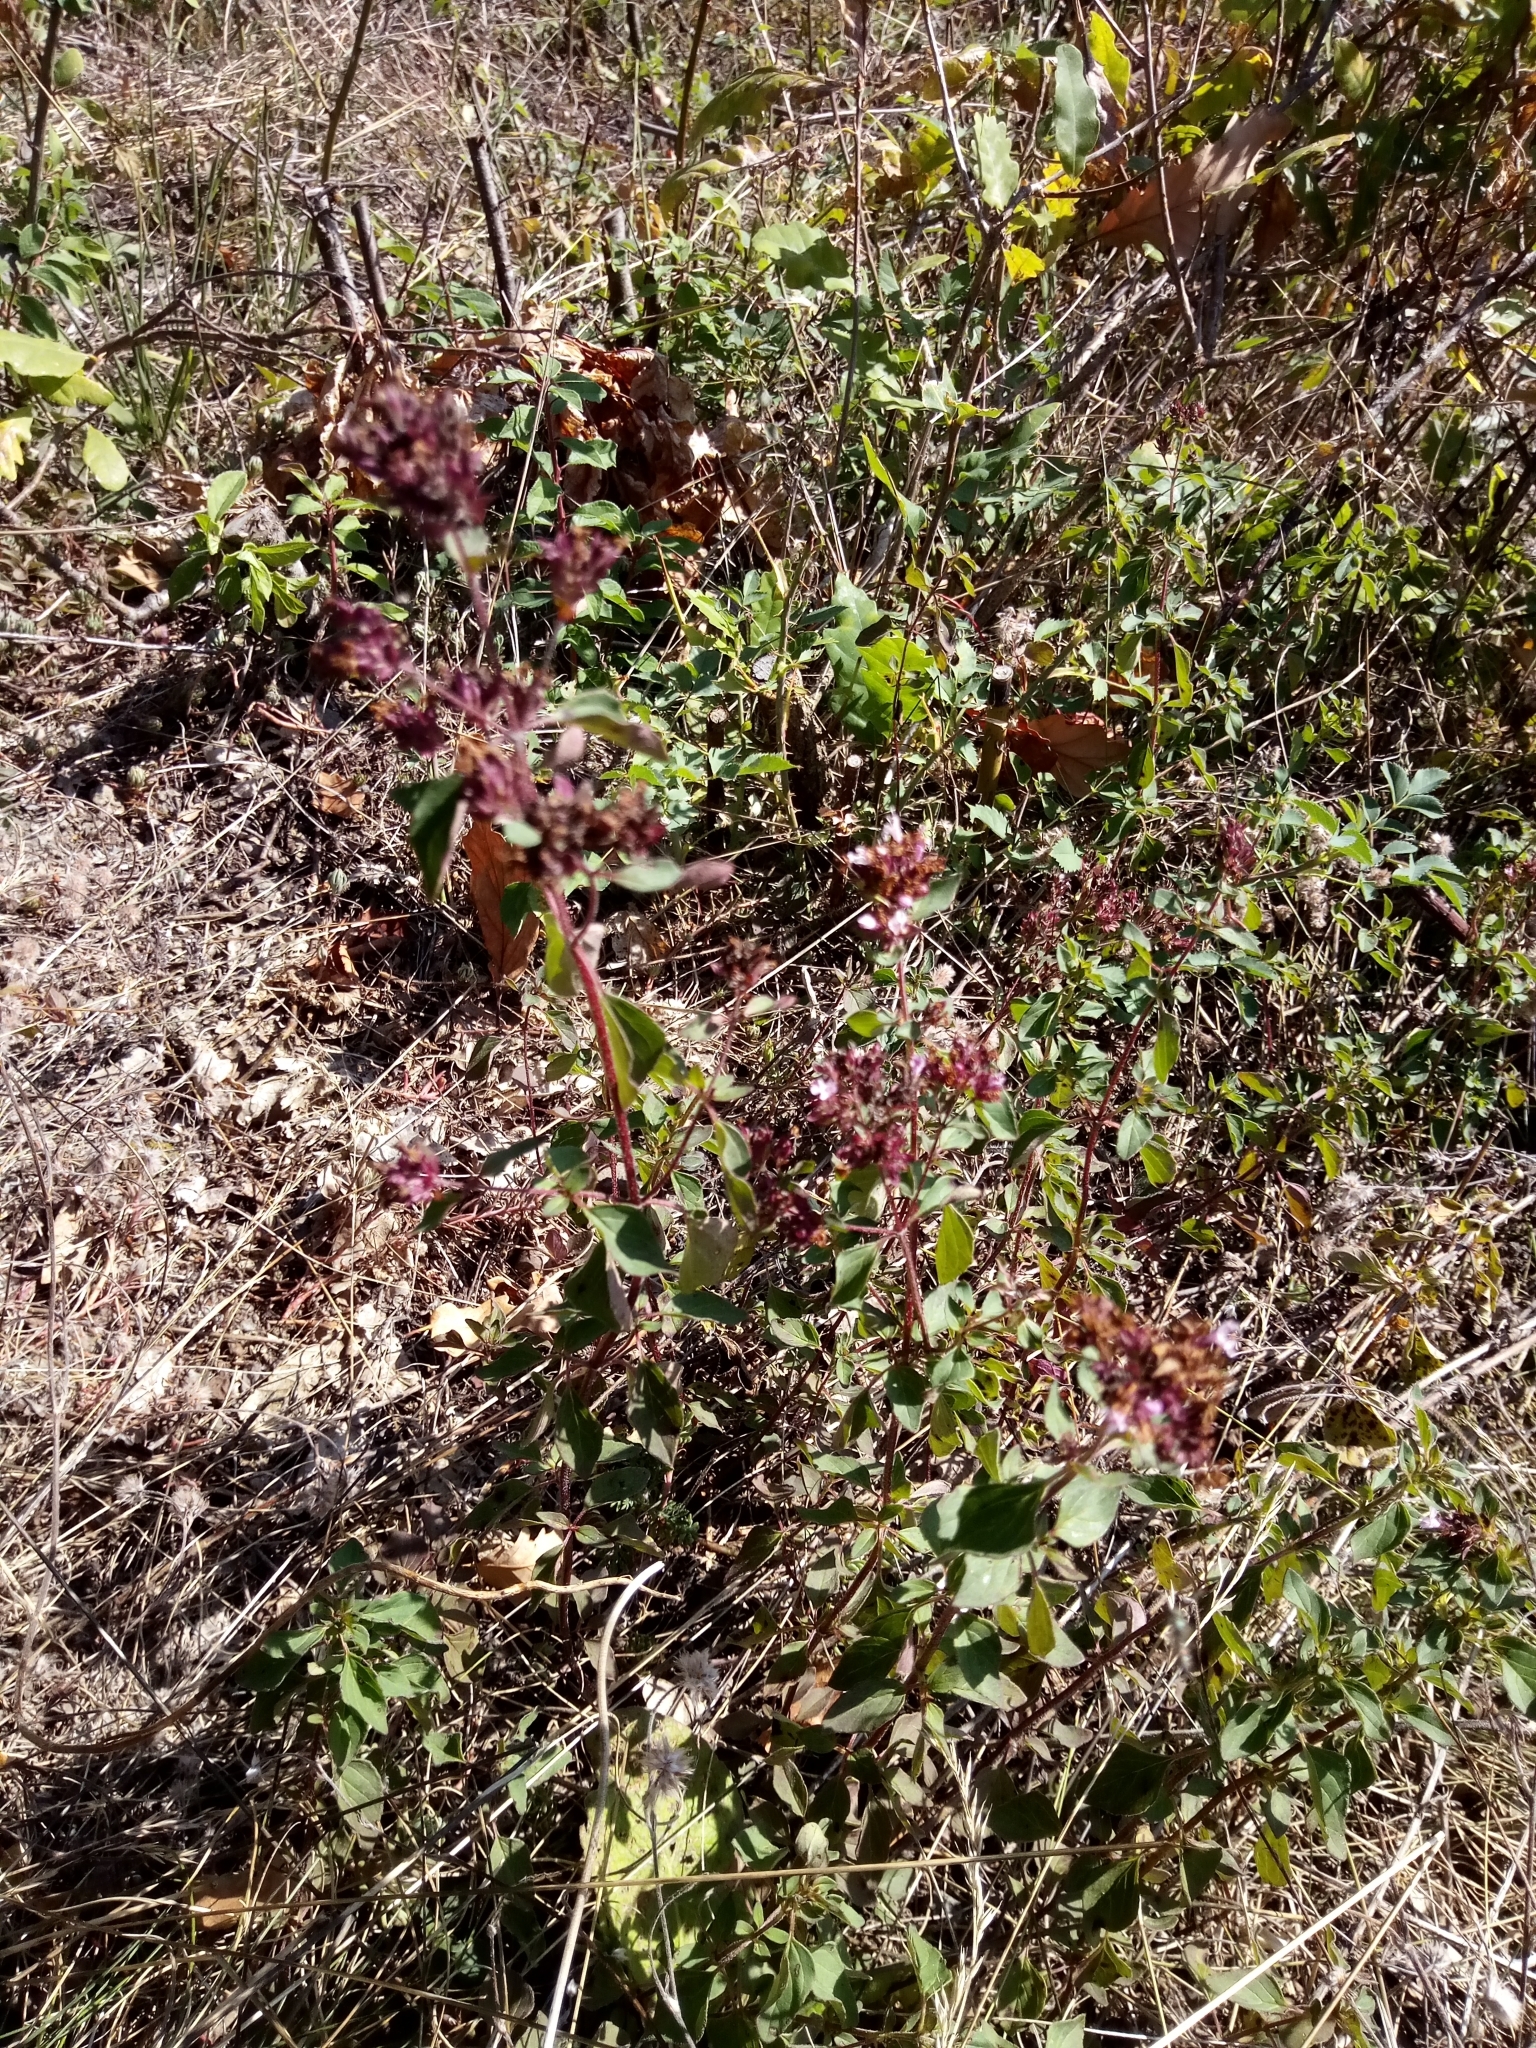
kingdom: Plantae
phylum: Tracheophyta
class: Magnoliopsida
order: Lamiales
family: Lamiaceae
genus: Origanum
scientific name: Origanum vulgare
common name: Wild marjoram
